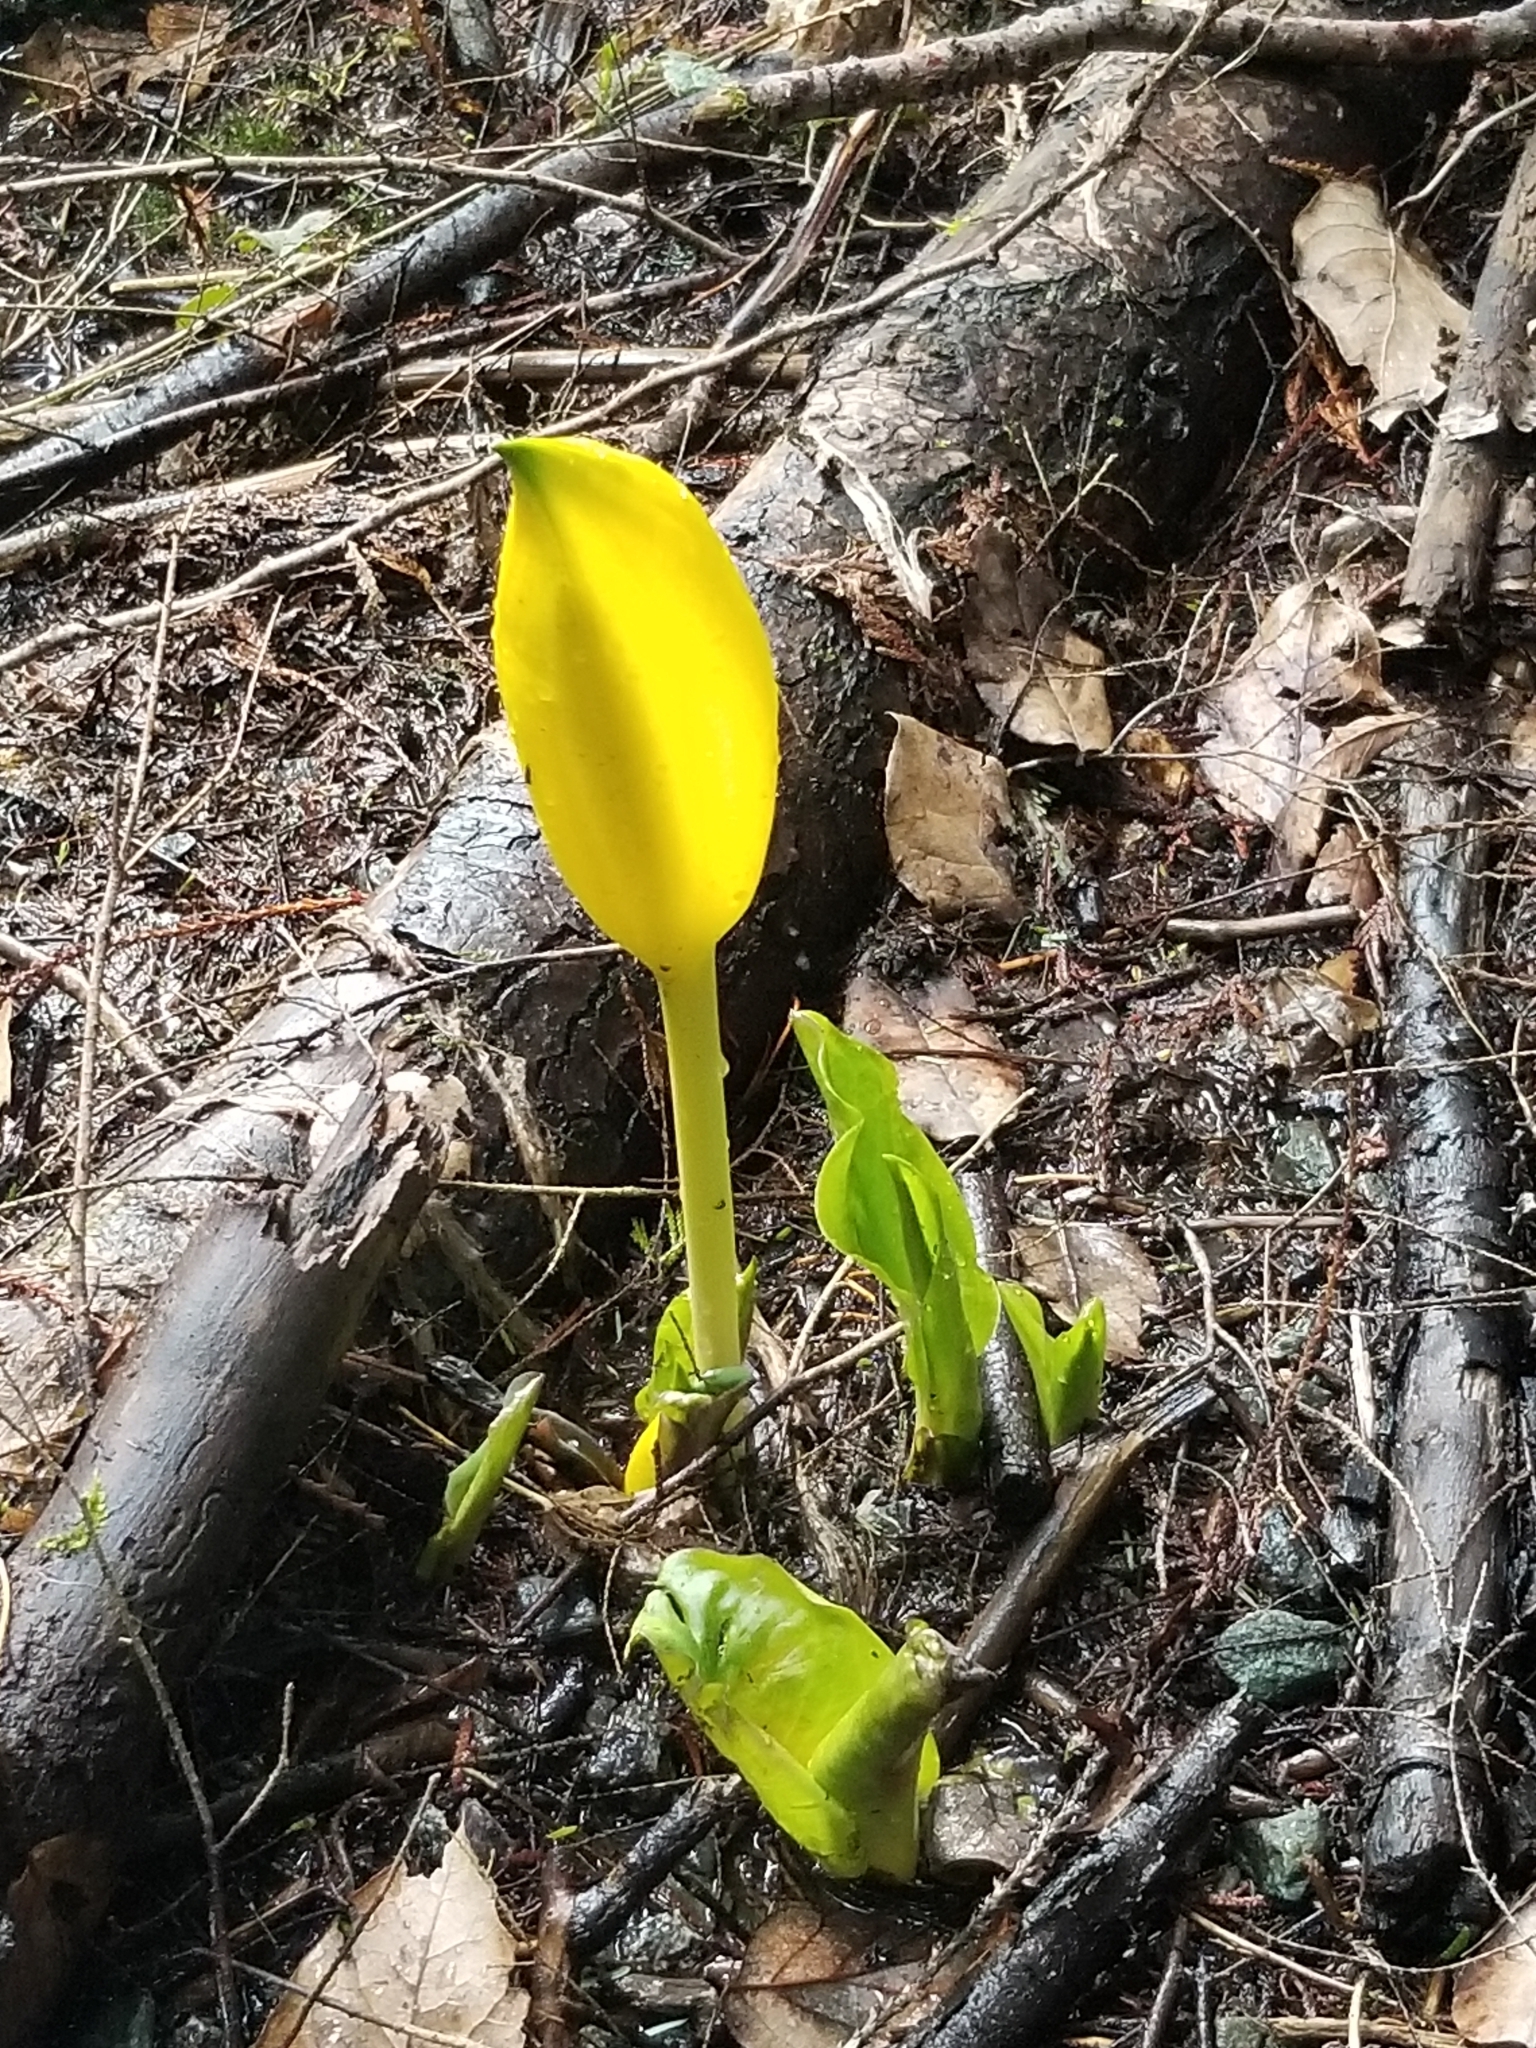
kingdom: Plantae
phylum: Tracheophyta
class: Liliopsida
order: Alismatales
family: Araceae
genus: Lysichiton
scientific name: Lysichiton americanus
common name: American skunk cabbage
